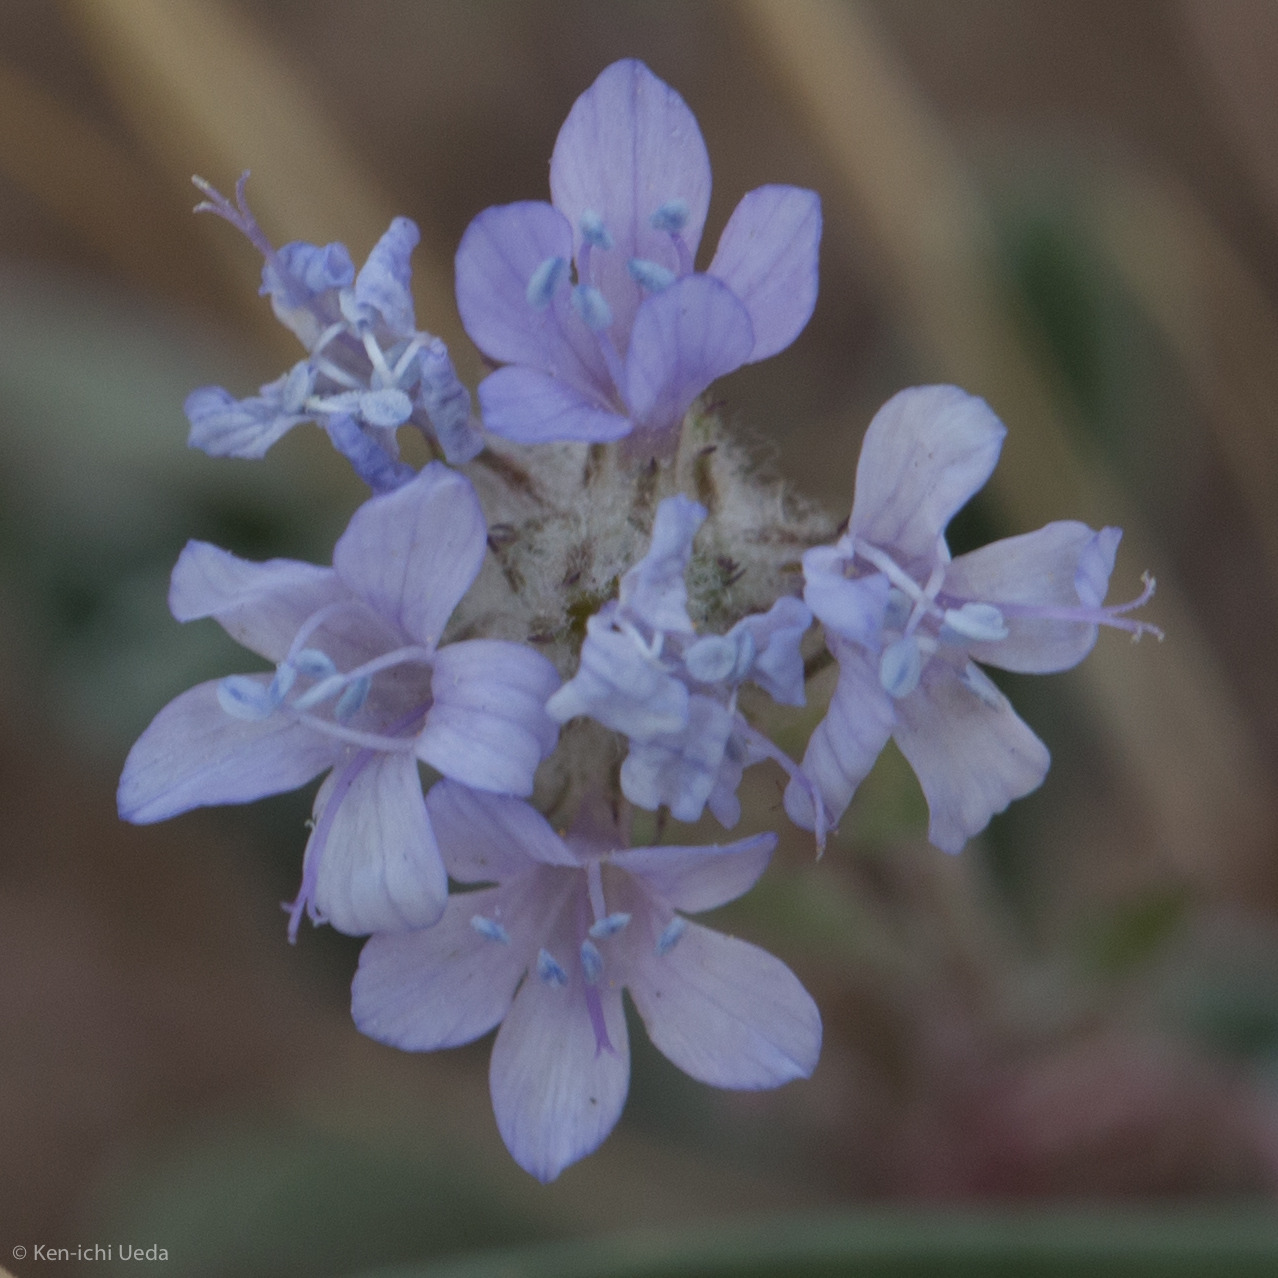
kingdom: Plantae
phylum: Tracheophyta
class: Magnoliopsida
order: Ericales
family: Polemoniaceae
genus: Gilia
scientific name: Gilia achilleifolia
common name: California gily-flower
